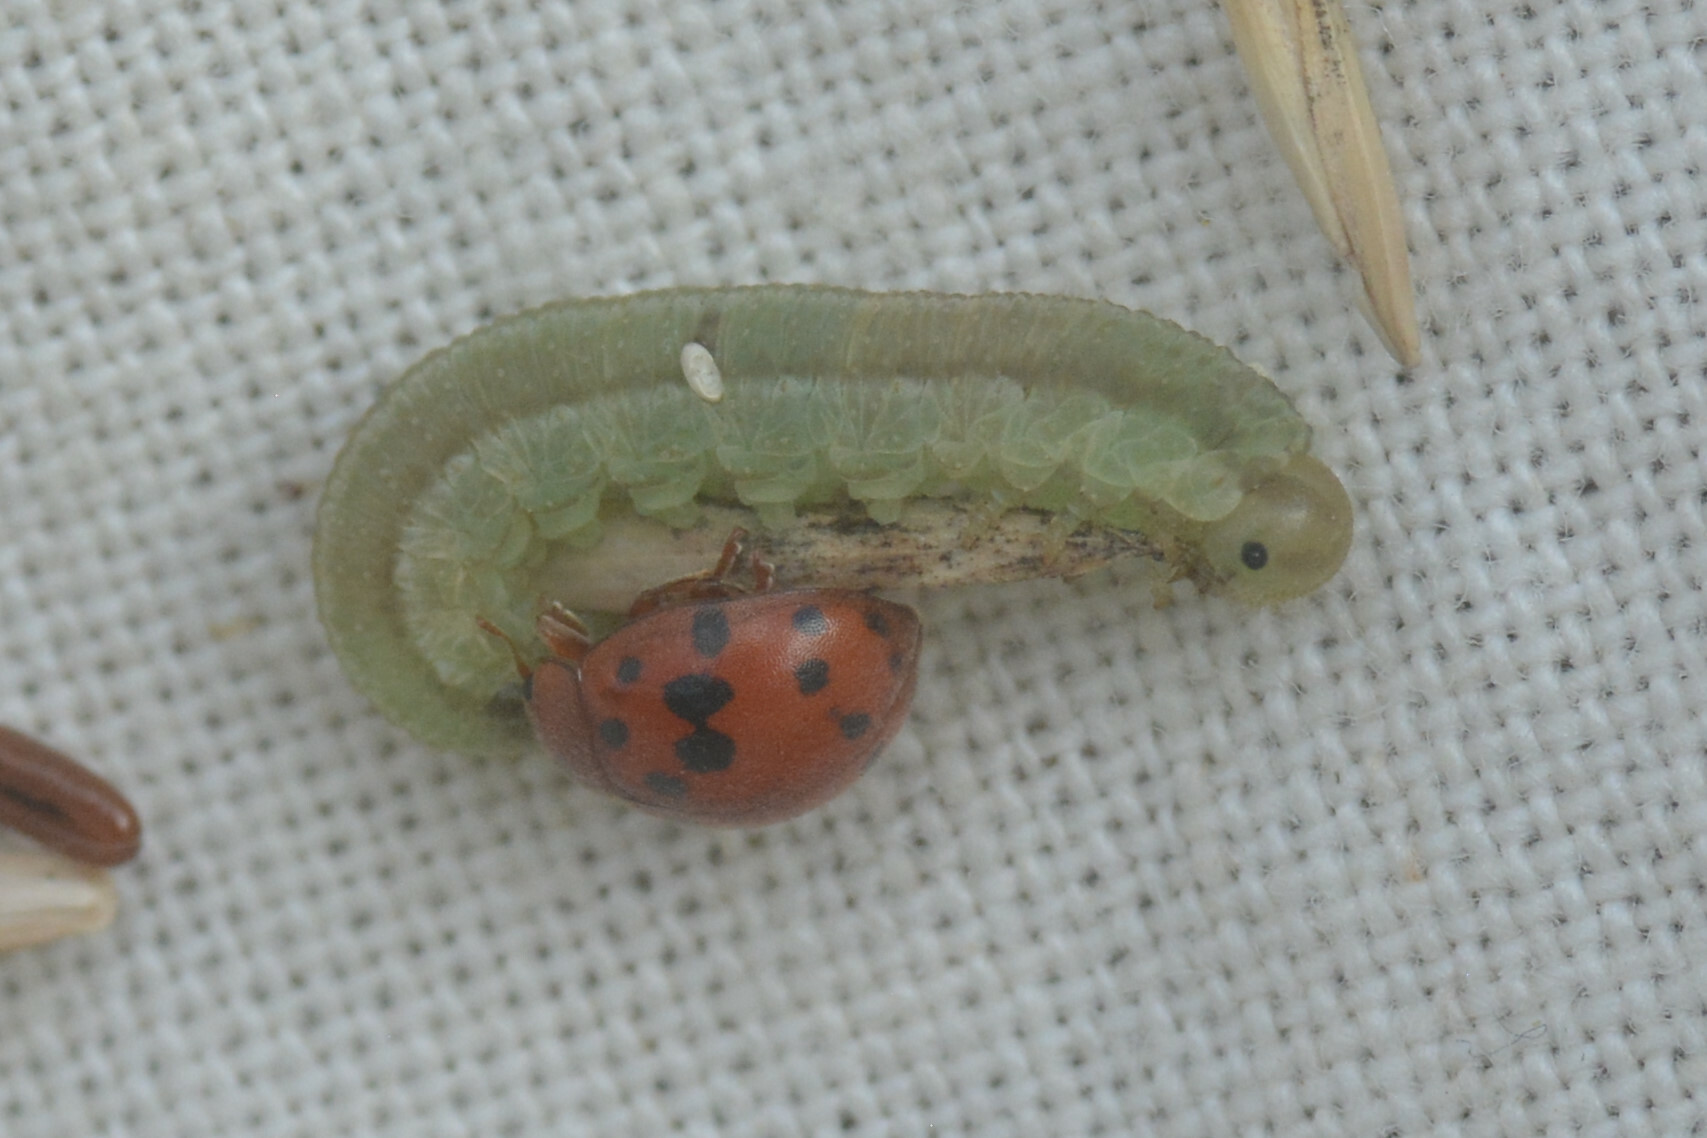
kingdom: Animalia
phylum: Arthropoda
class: Insecta
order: Coleoptera
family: Coccinellidae
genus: Subcoccinella
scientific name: Subcoccinella vigintiquatuorpunctata
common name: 24-spot ladybird
